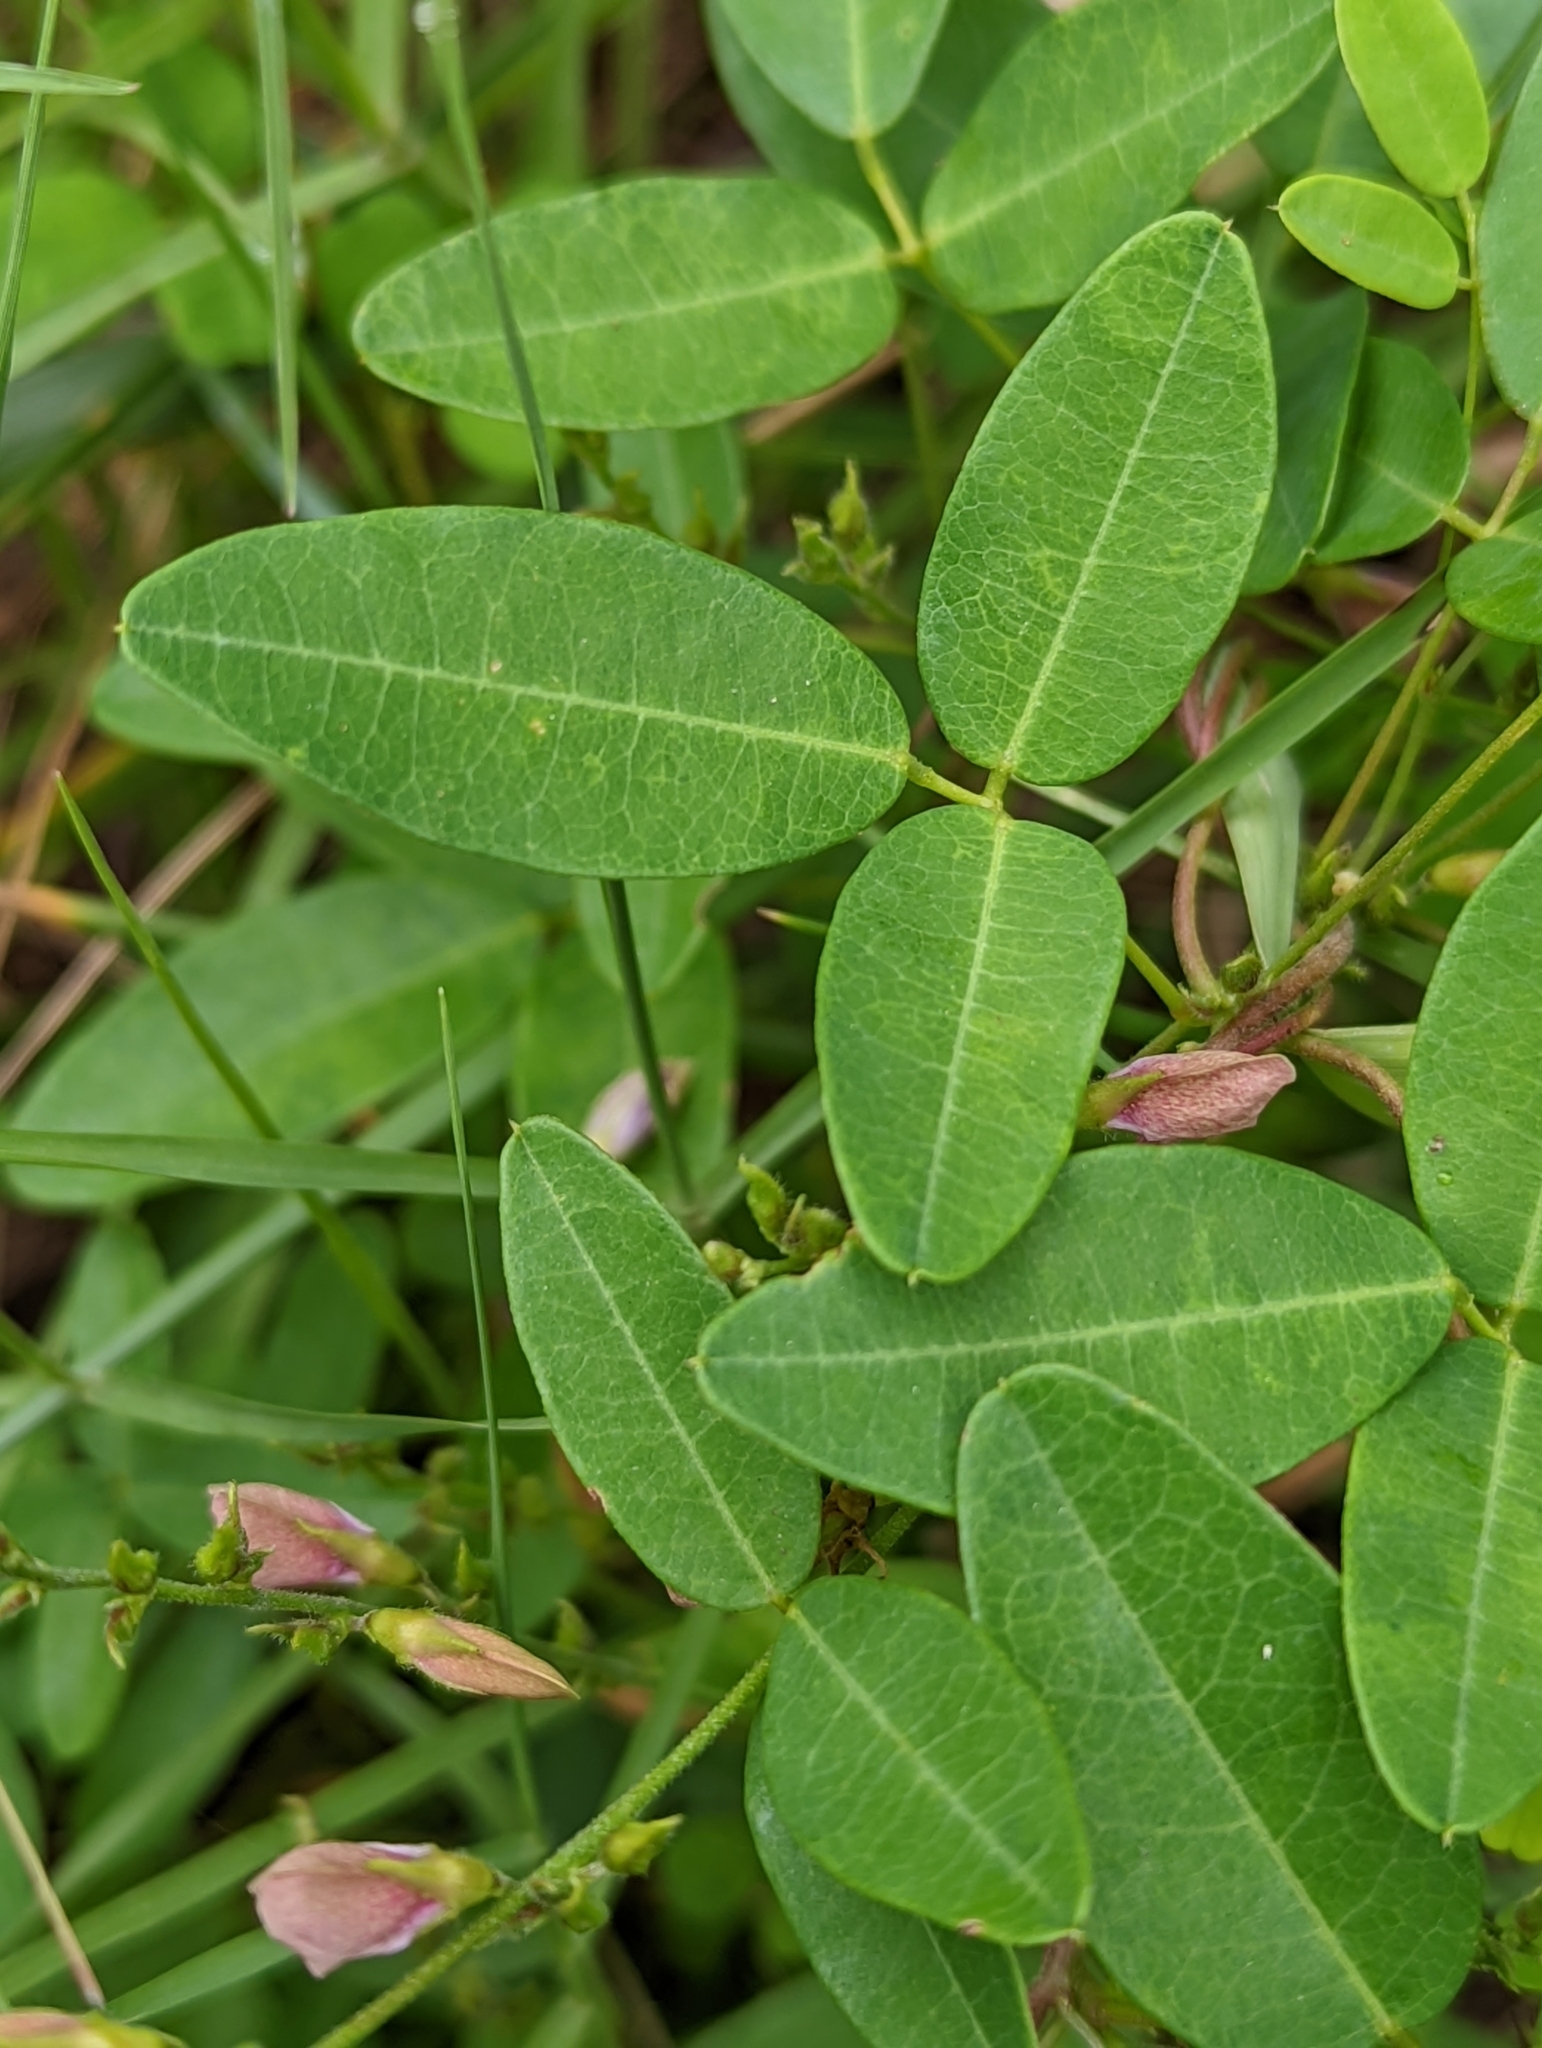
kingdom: Plantae
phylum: Tracheophyta
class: Magnoliopsida
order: Fabales
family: Fabaceae
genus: Galactia
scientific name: Galactia regularis
